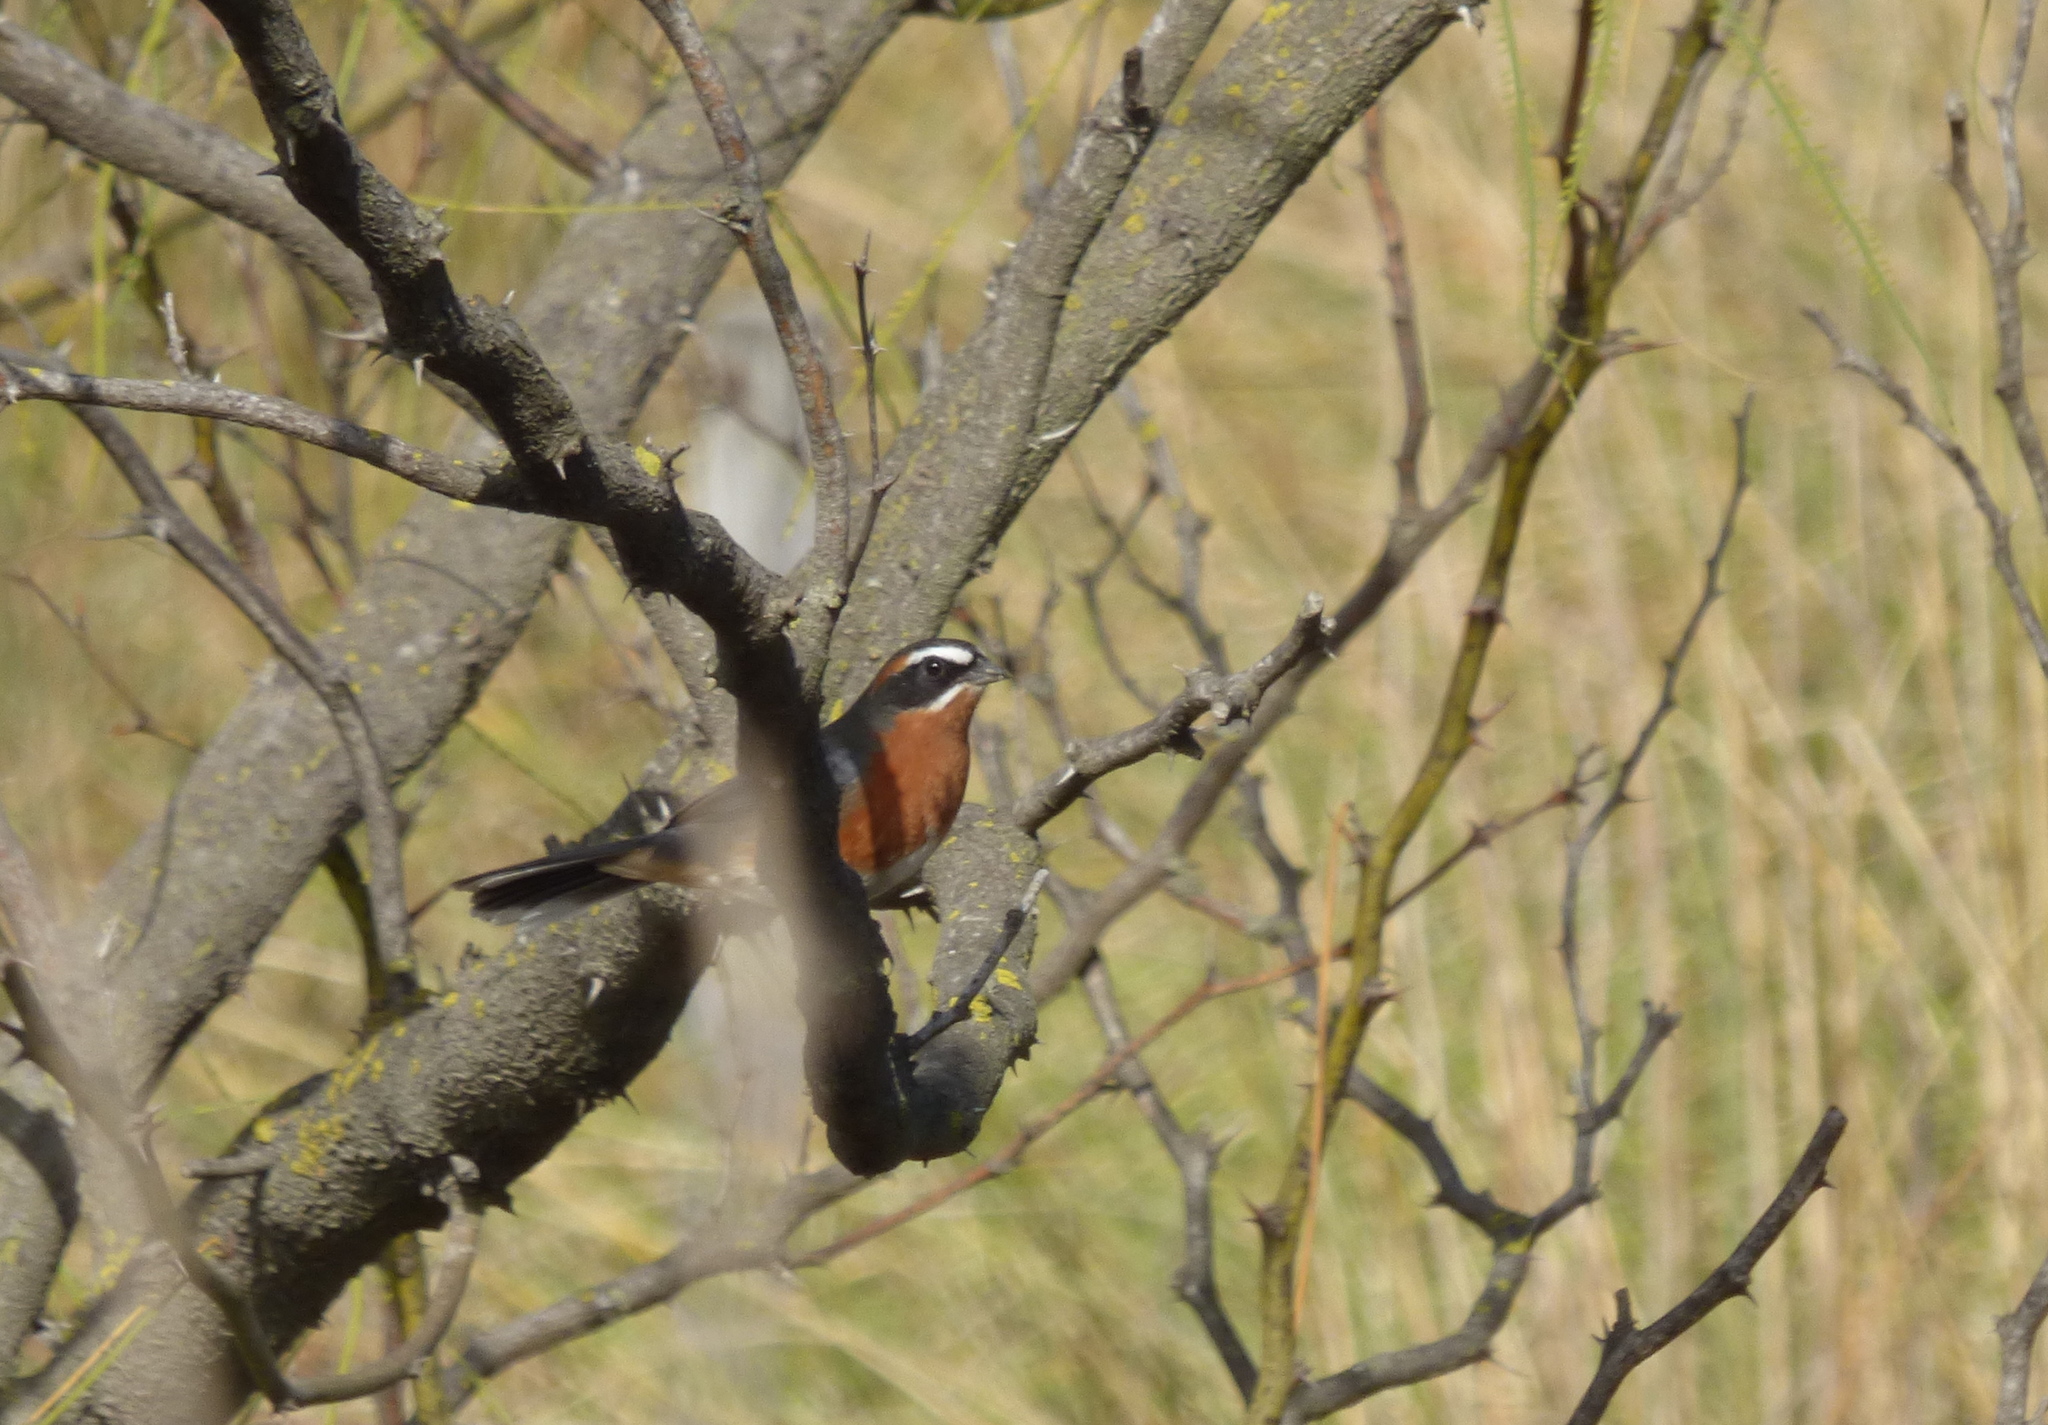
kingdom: Animalia
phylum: Chordata
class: Aves
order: Passeriformes
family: Thraupidae
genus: Poospiza
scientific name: Poospiza nigrorufa
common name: Black-and-rufous warbling finch
